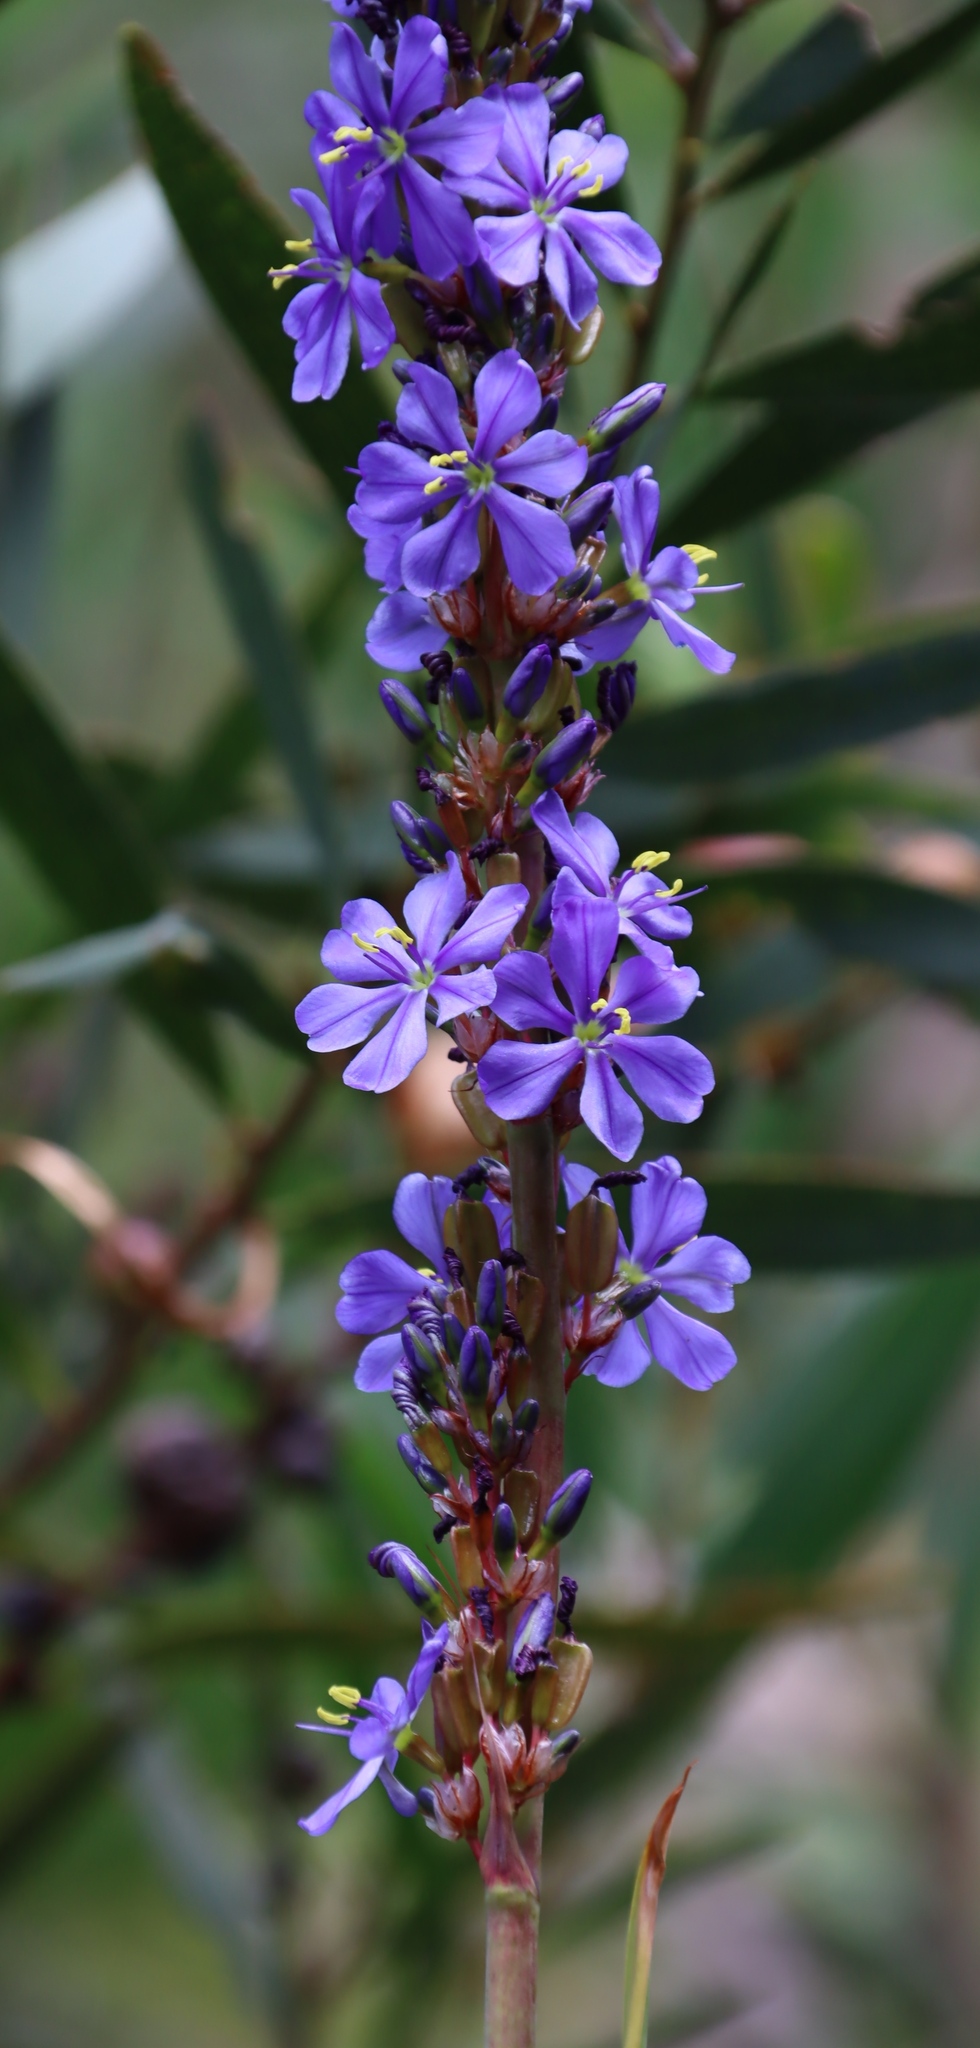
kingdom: Plantae
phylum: Tracheophyta
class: Liliopsida
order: Asparagales
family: Iridaceae
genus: Aristea
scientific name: Aristea bakeri
